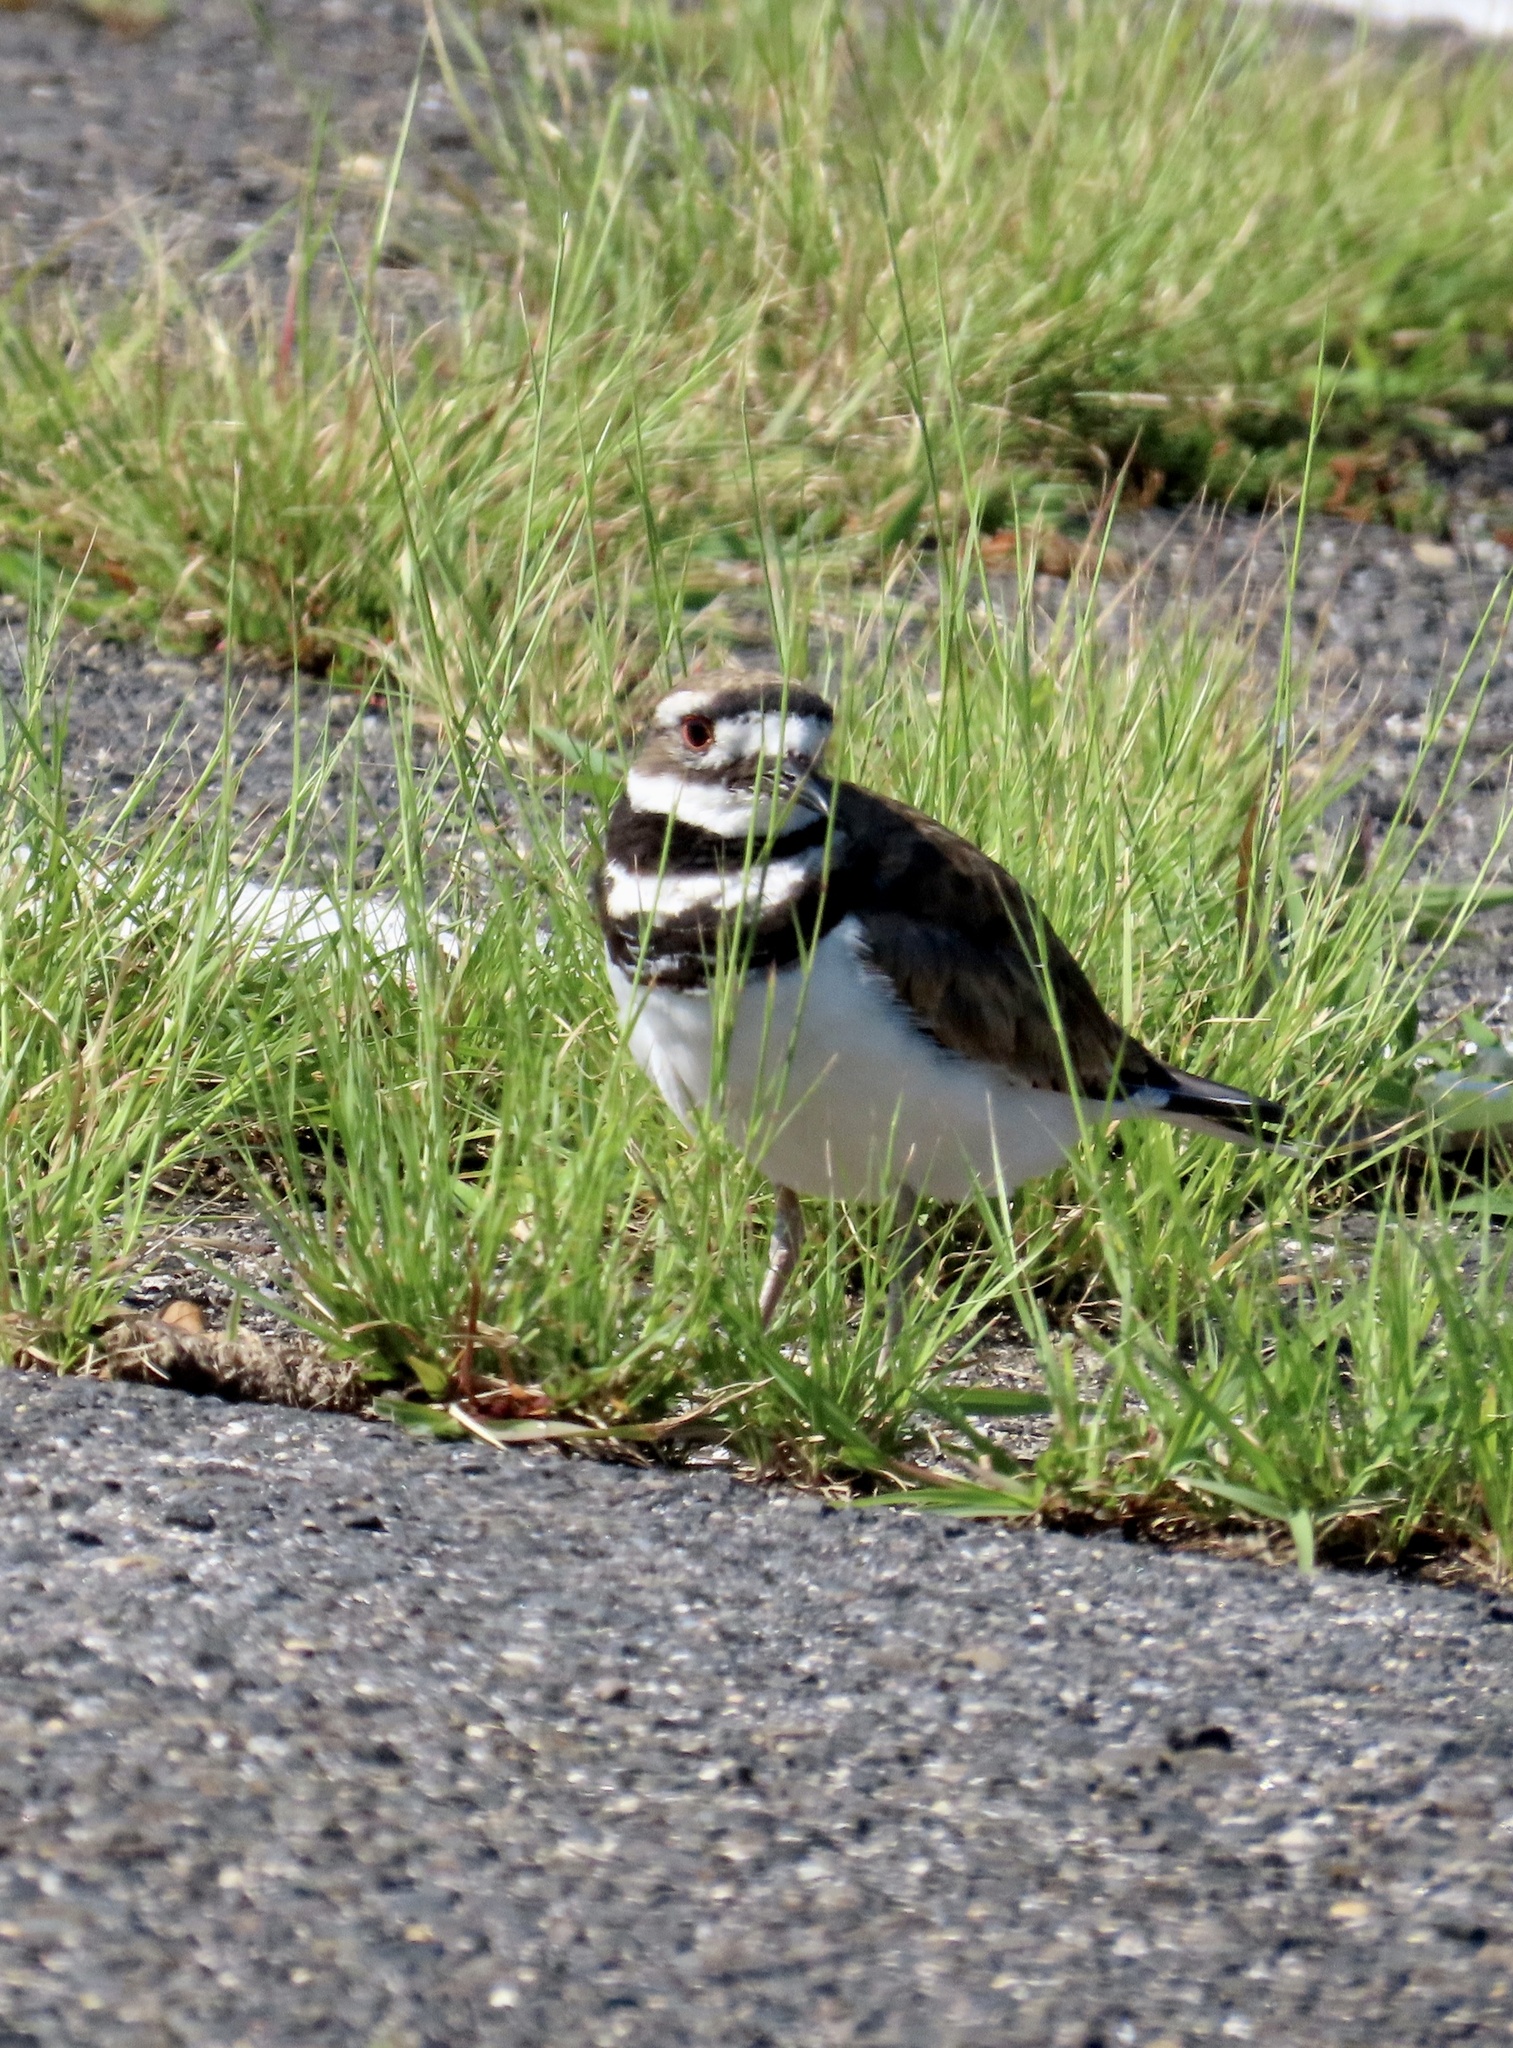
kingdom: Animalia
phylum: Chordata
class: Aves
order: Charadriiformes
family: Charadriidae
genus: Charadrius
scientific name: Charadrius vociferus
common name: Killdeer
